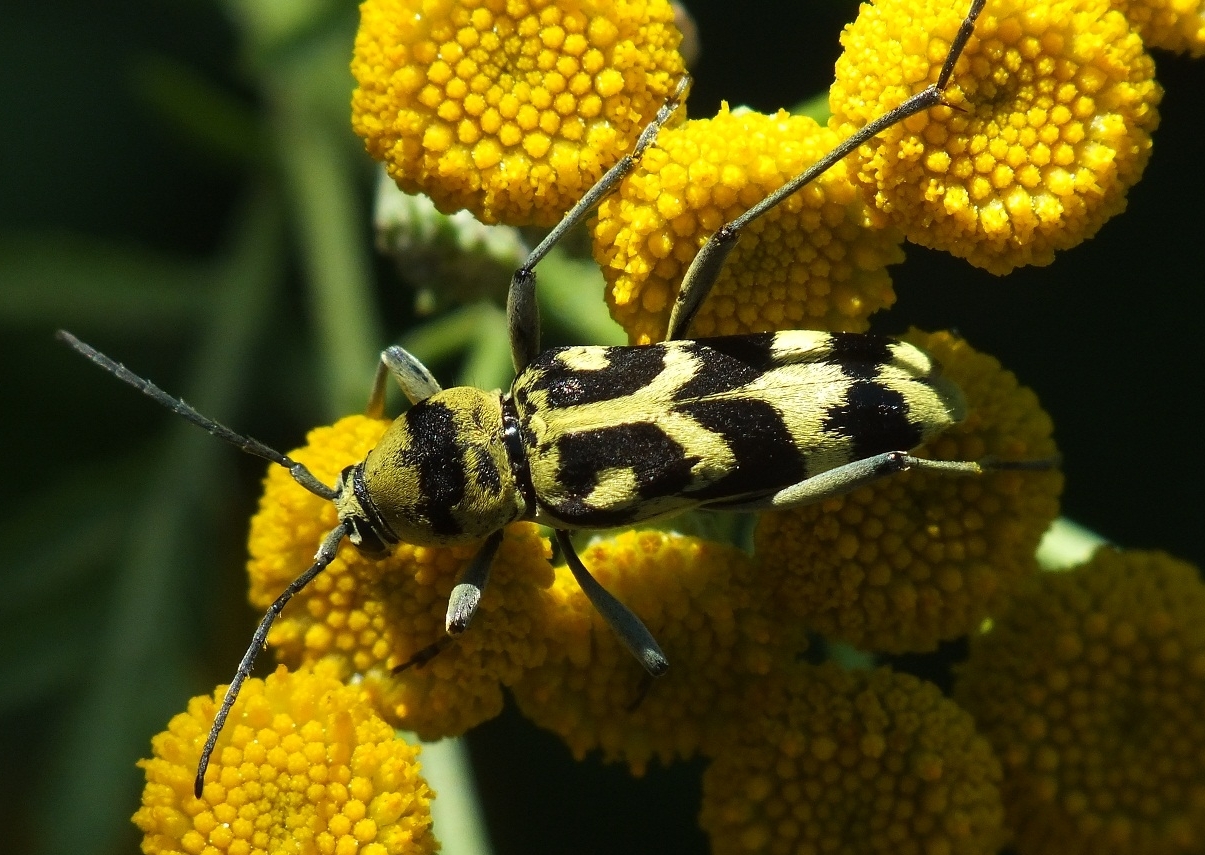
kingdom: Animalia
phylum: Arthropoda
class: Insecta
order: Coleoptera
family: Cerambycidae
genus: Chlorophorus
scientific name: Chlorophorus varius
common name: Grape wood borer
